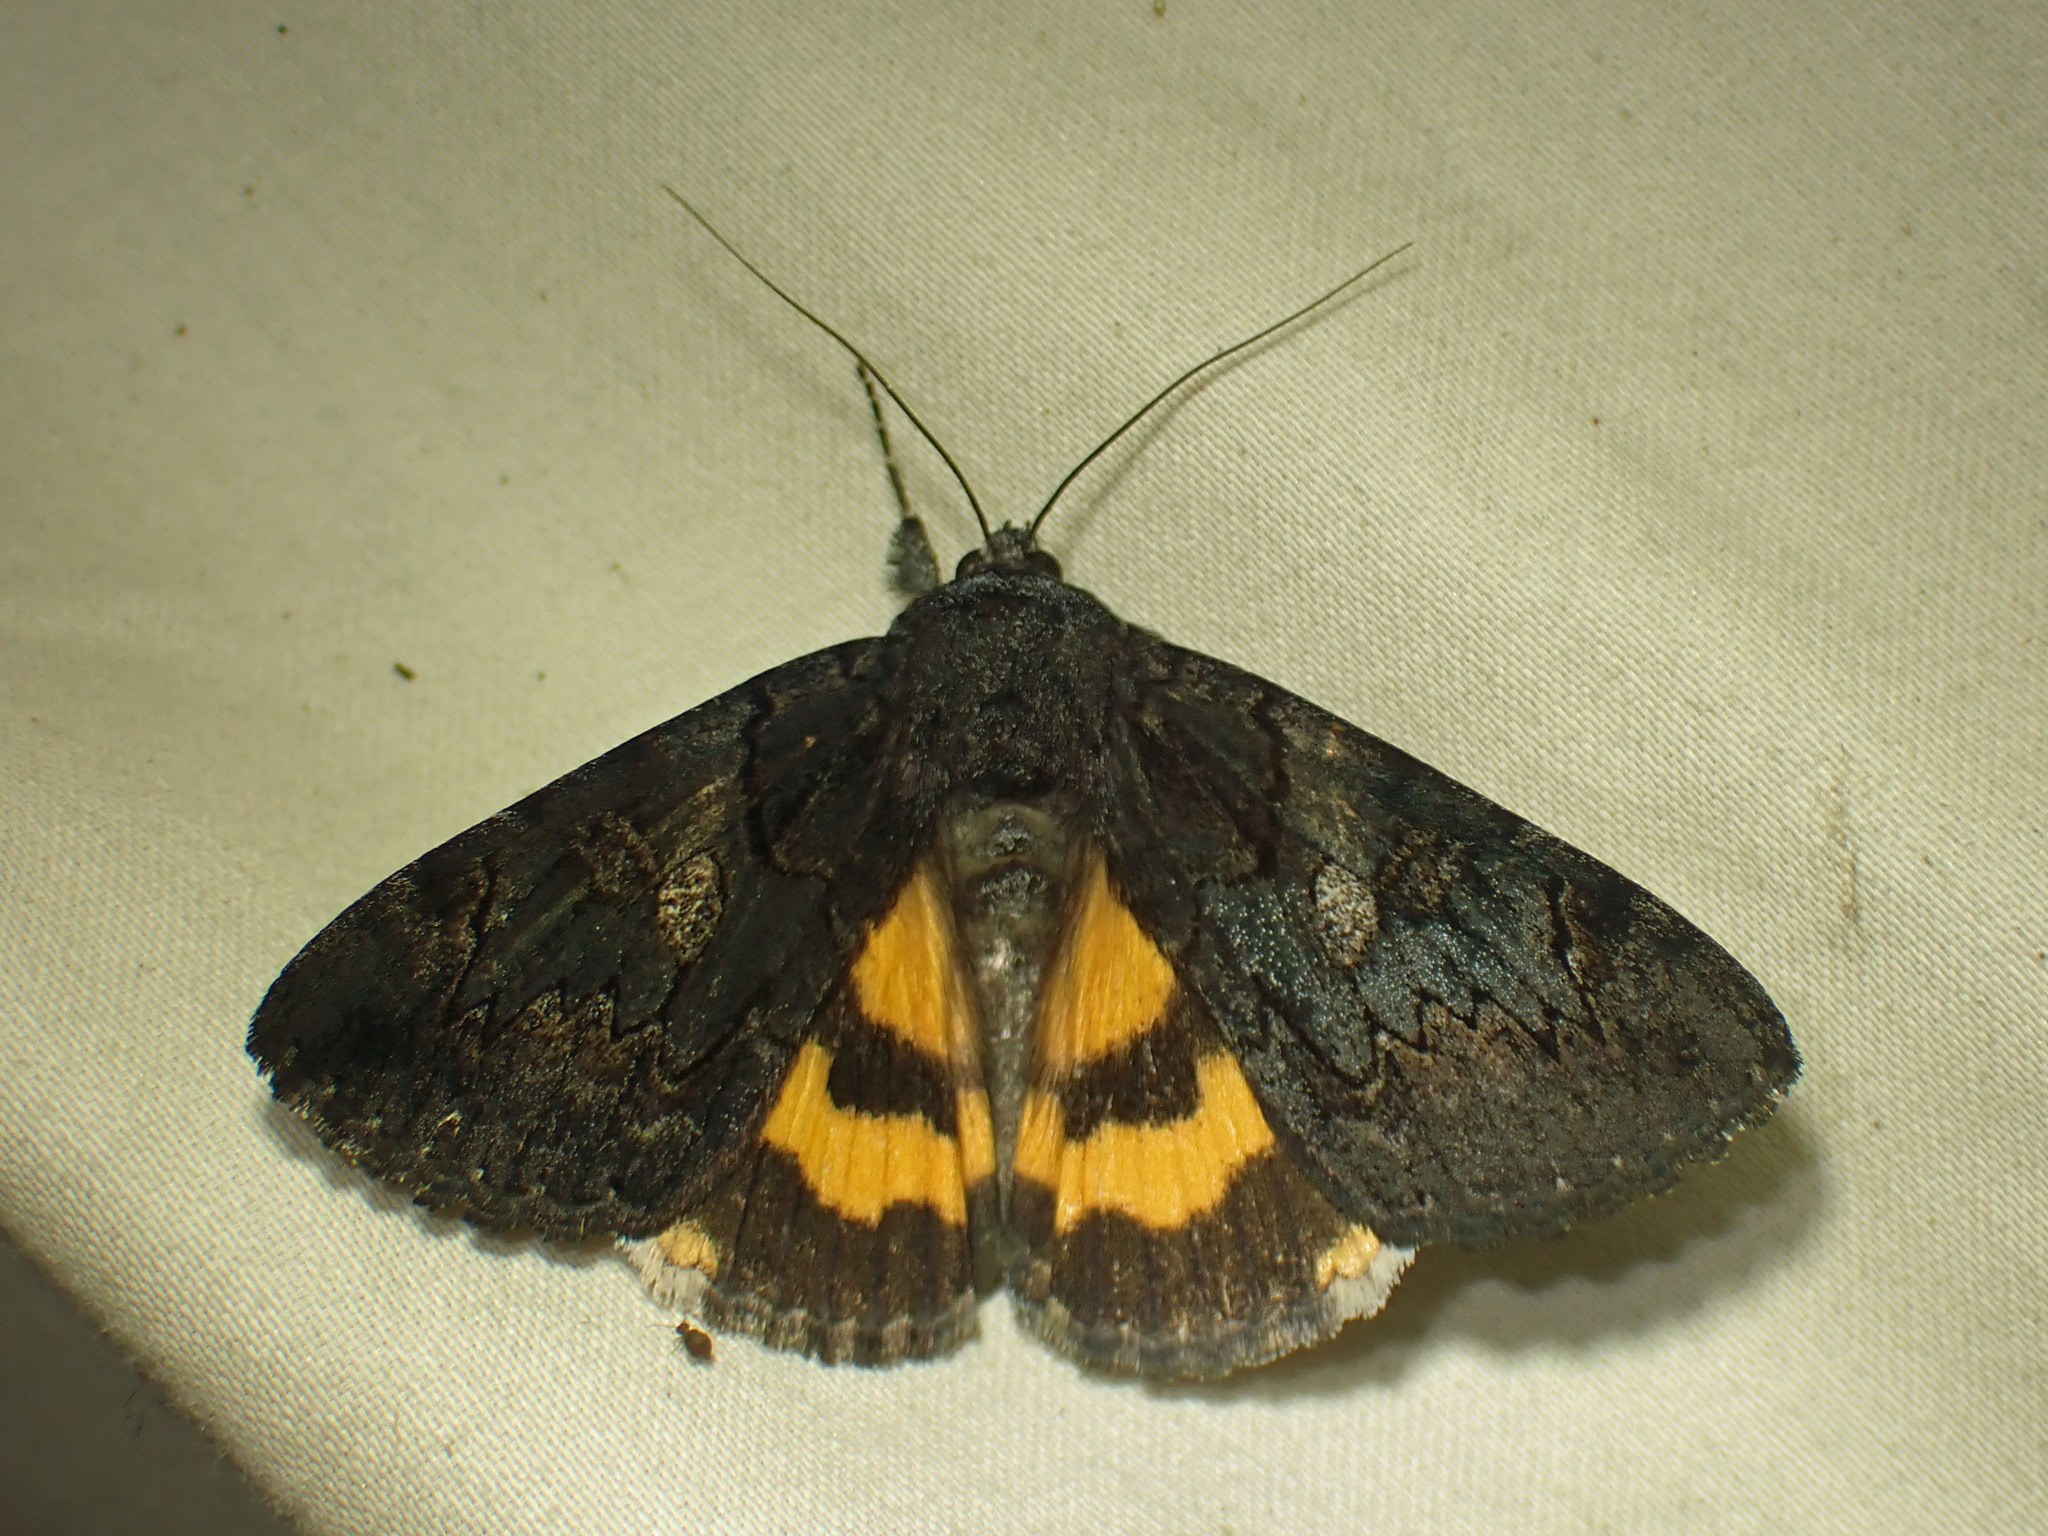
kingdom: Animalia
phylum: Arthropoda
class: Insecta
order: Lepidoptera
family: Erebidae
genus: Catocala
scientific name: Catocala antinympha
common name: Sweetfern underwing
